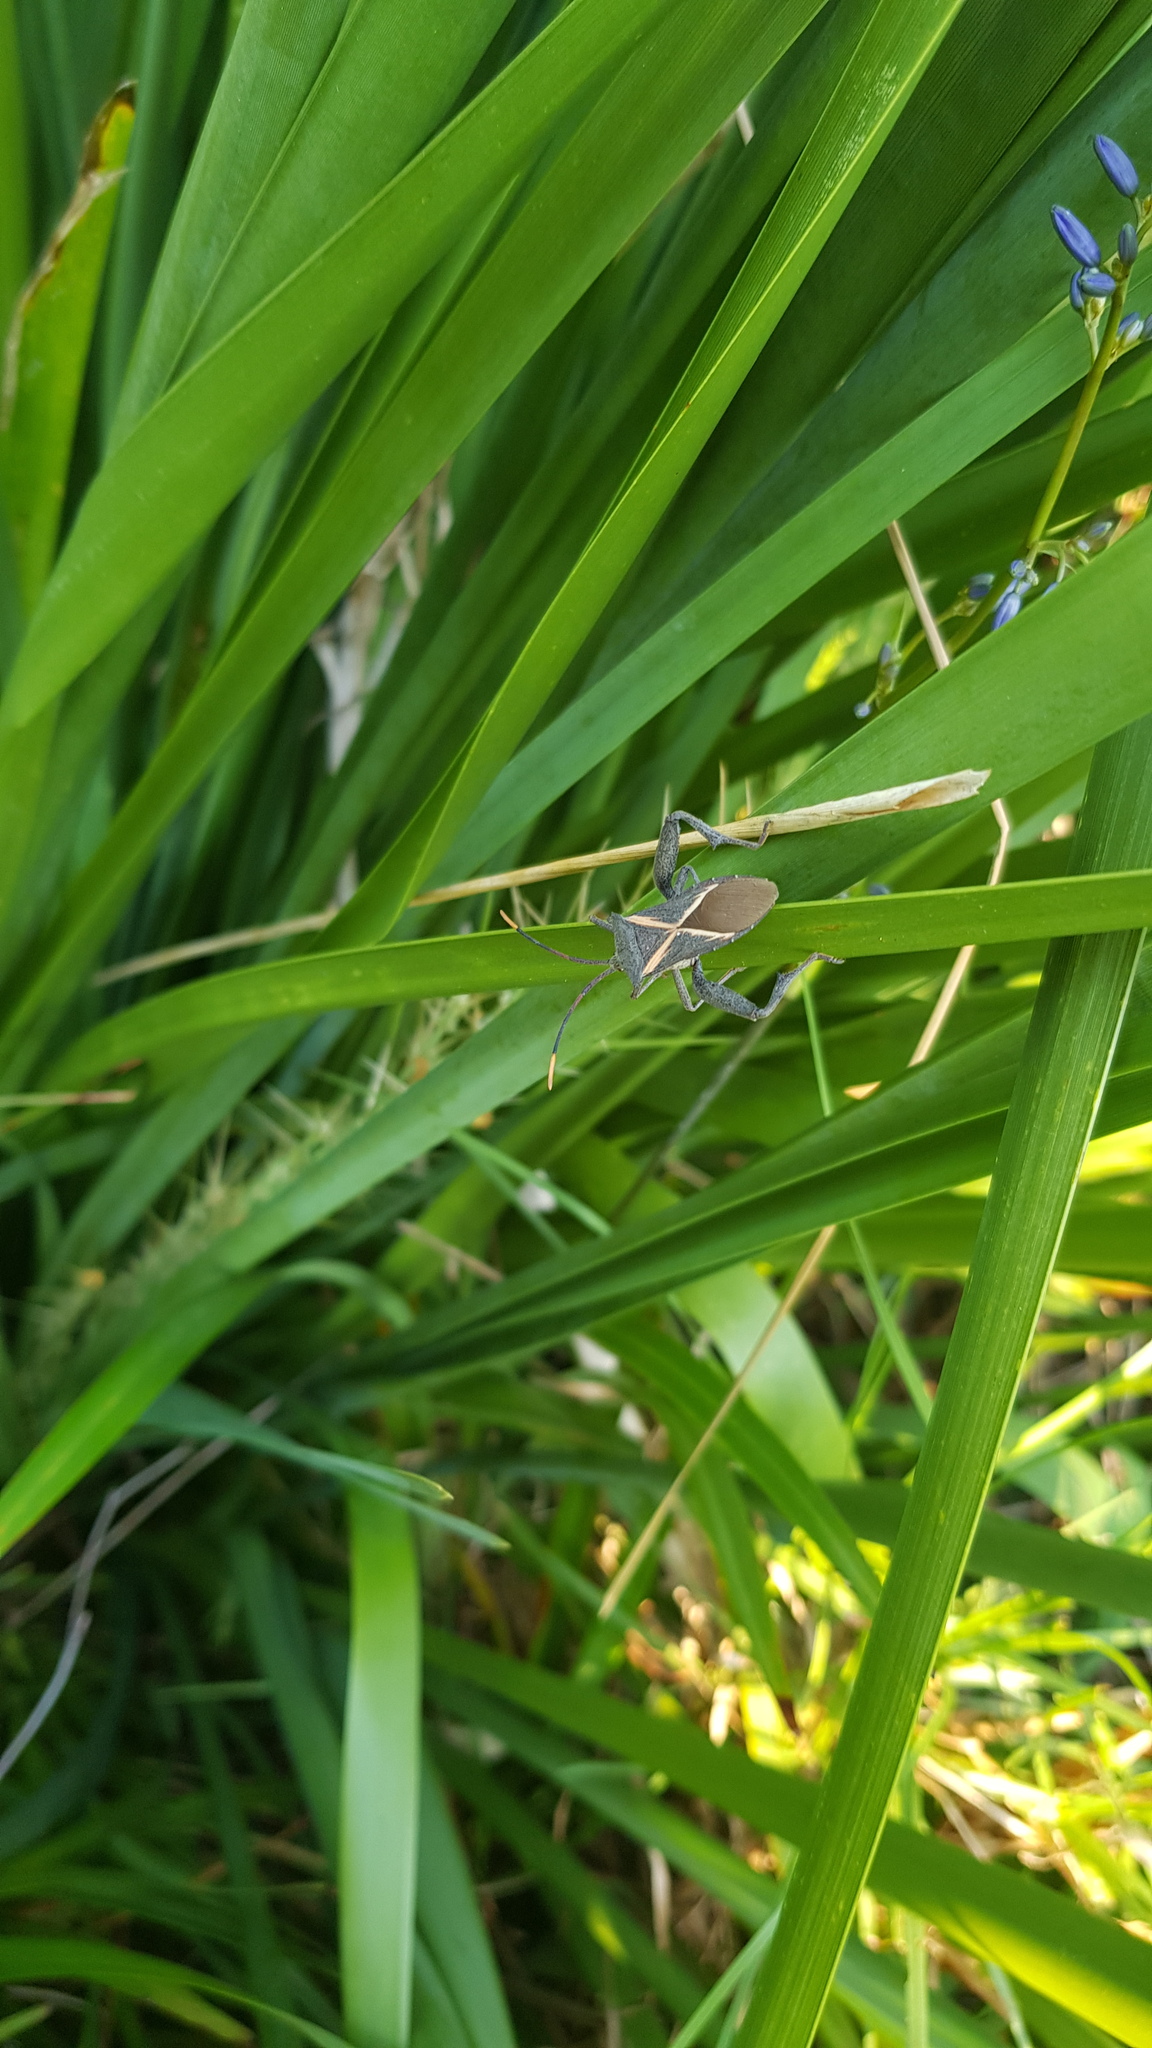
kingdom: Animalia
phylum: Arthropoda
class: Insecta
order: Hemiptera
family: Coreidae
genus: Mictis
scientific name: Mictis profana
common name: Crusader bug
